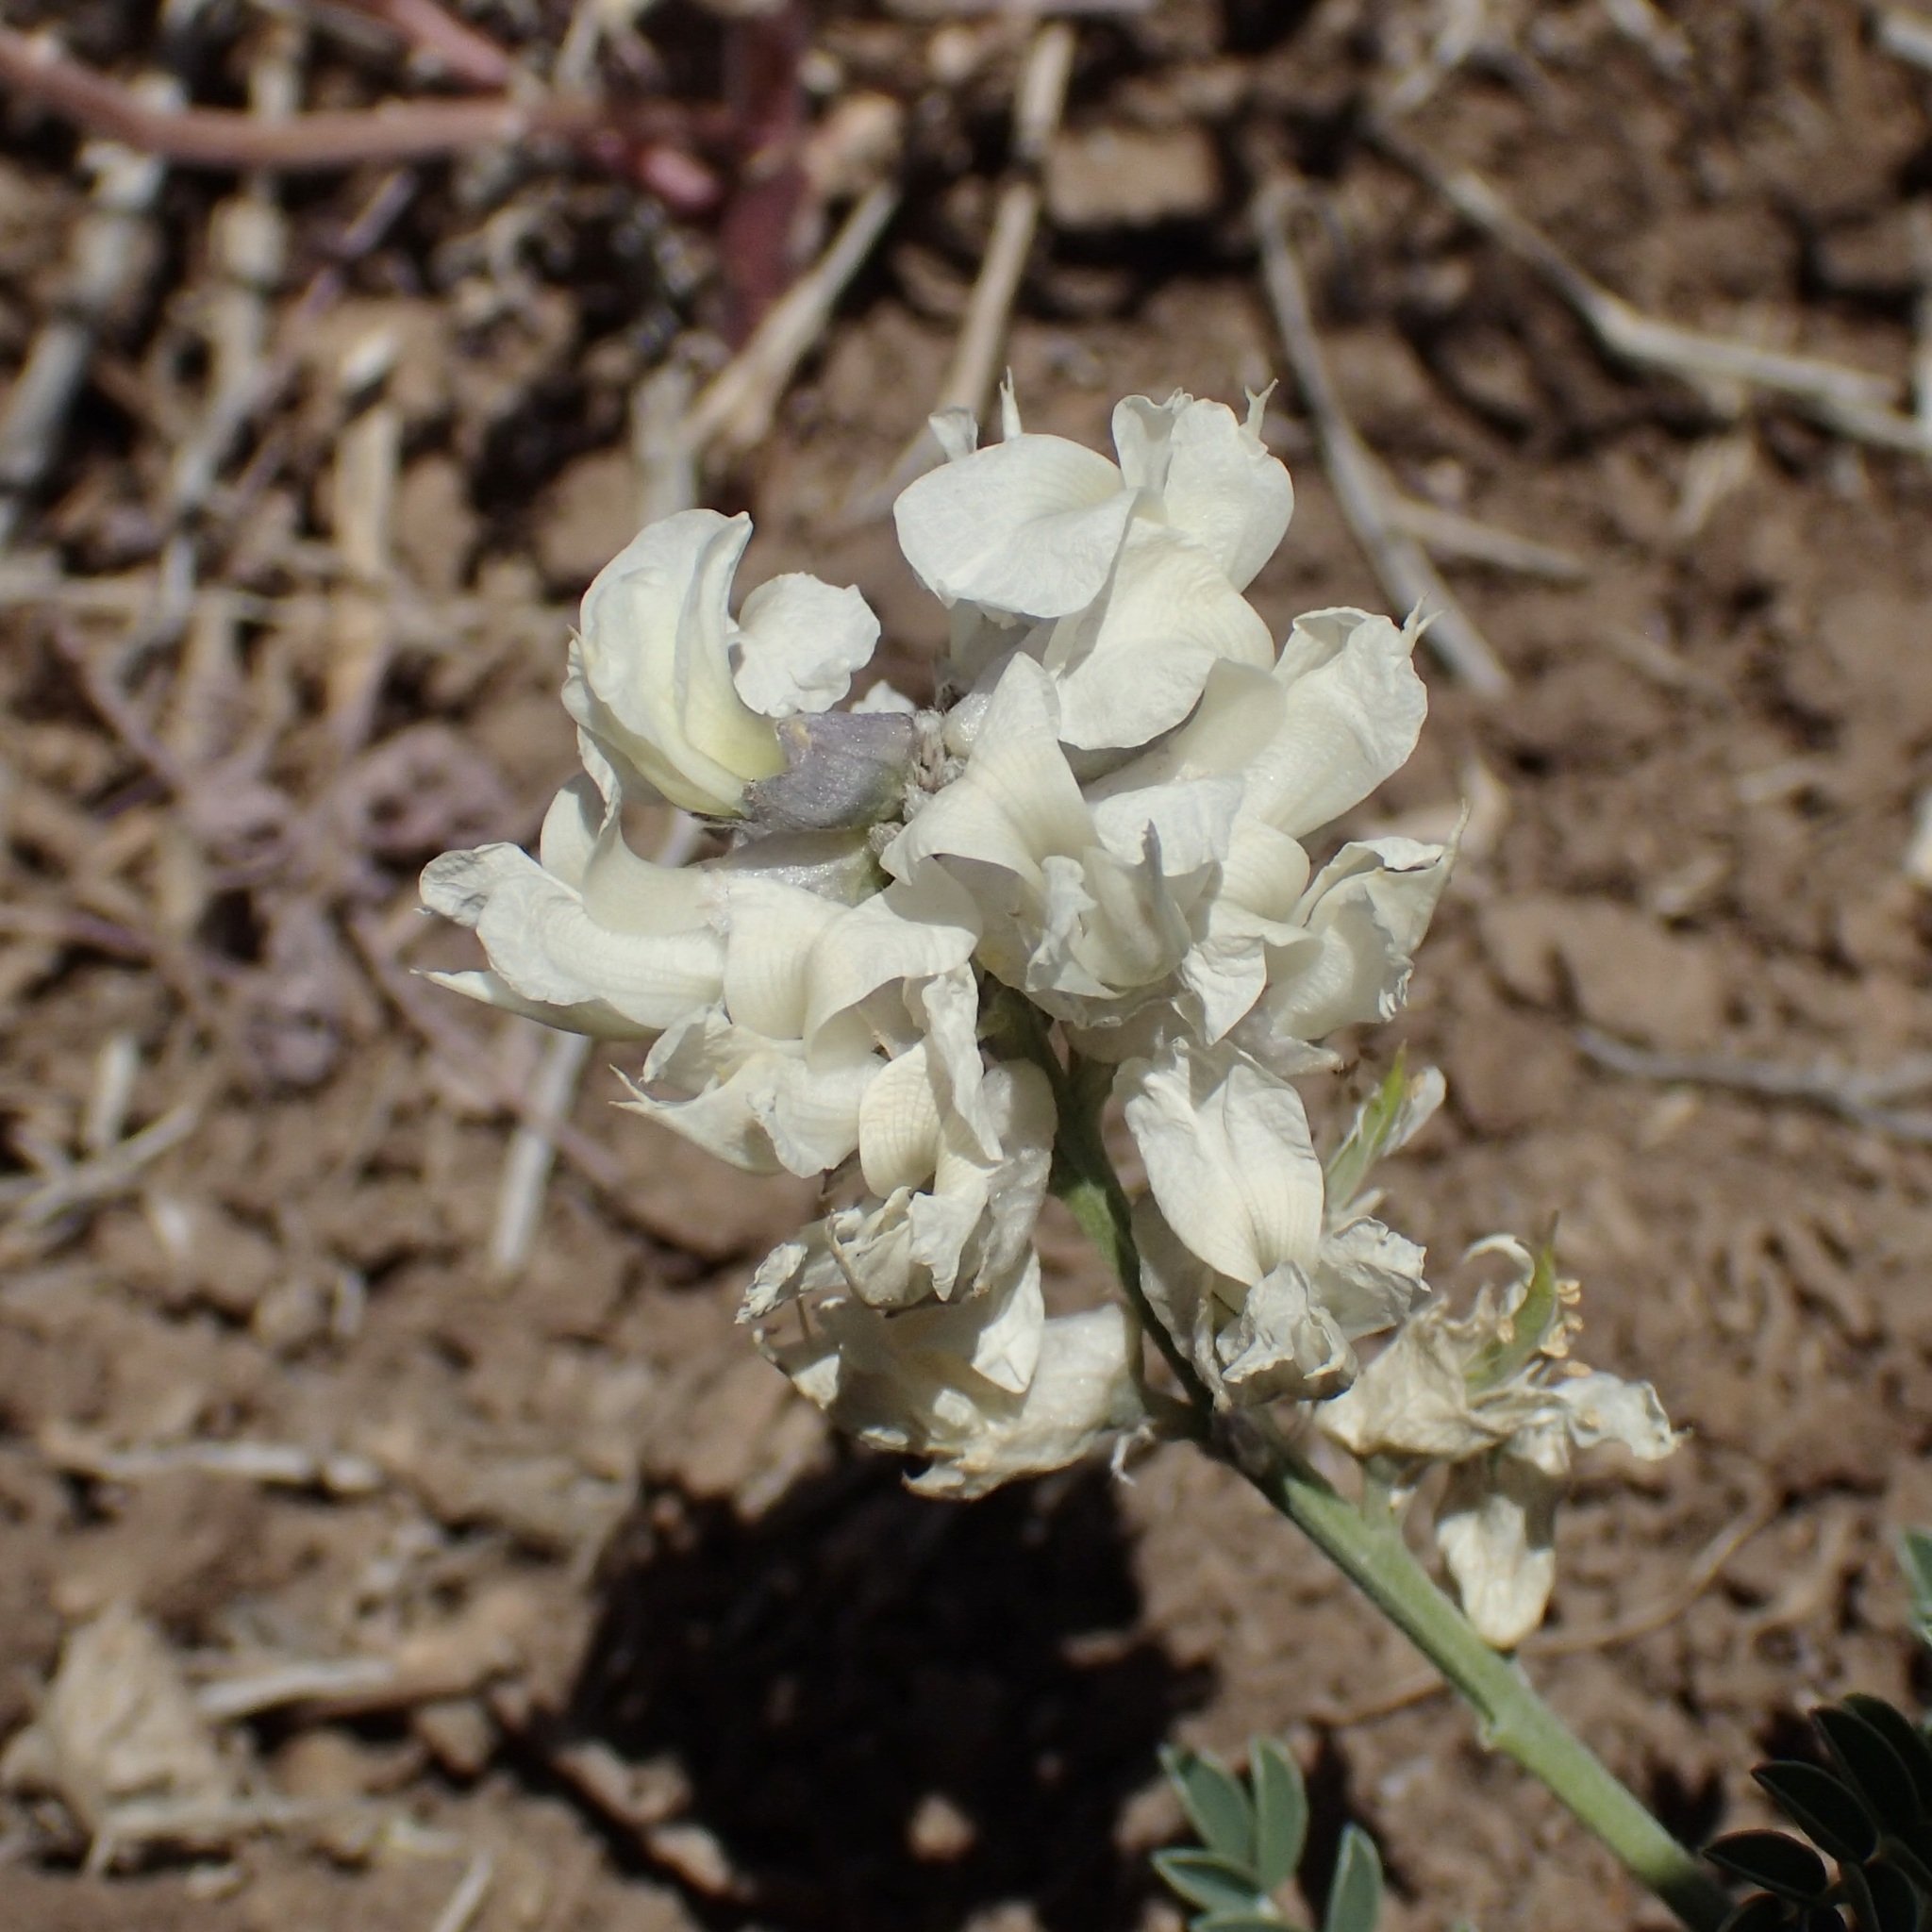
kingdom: Plantae
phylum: Tracheophyta
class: Magnoliopsida
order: Fabales
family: Fabaceae
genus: Sophora
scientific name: Sophora nuttalliana
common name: Silky sophora
